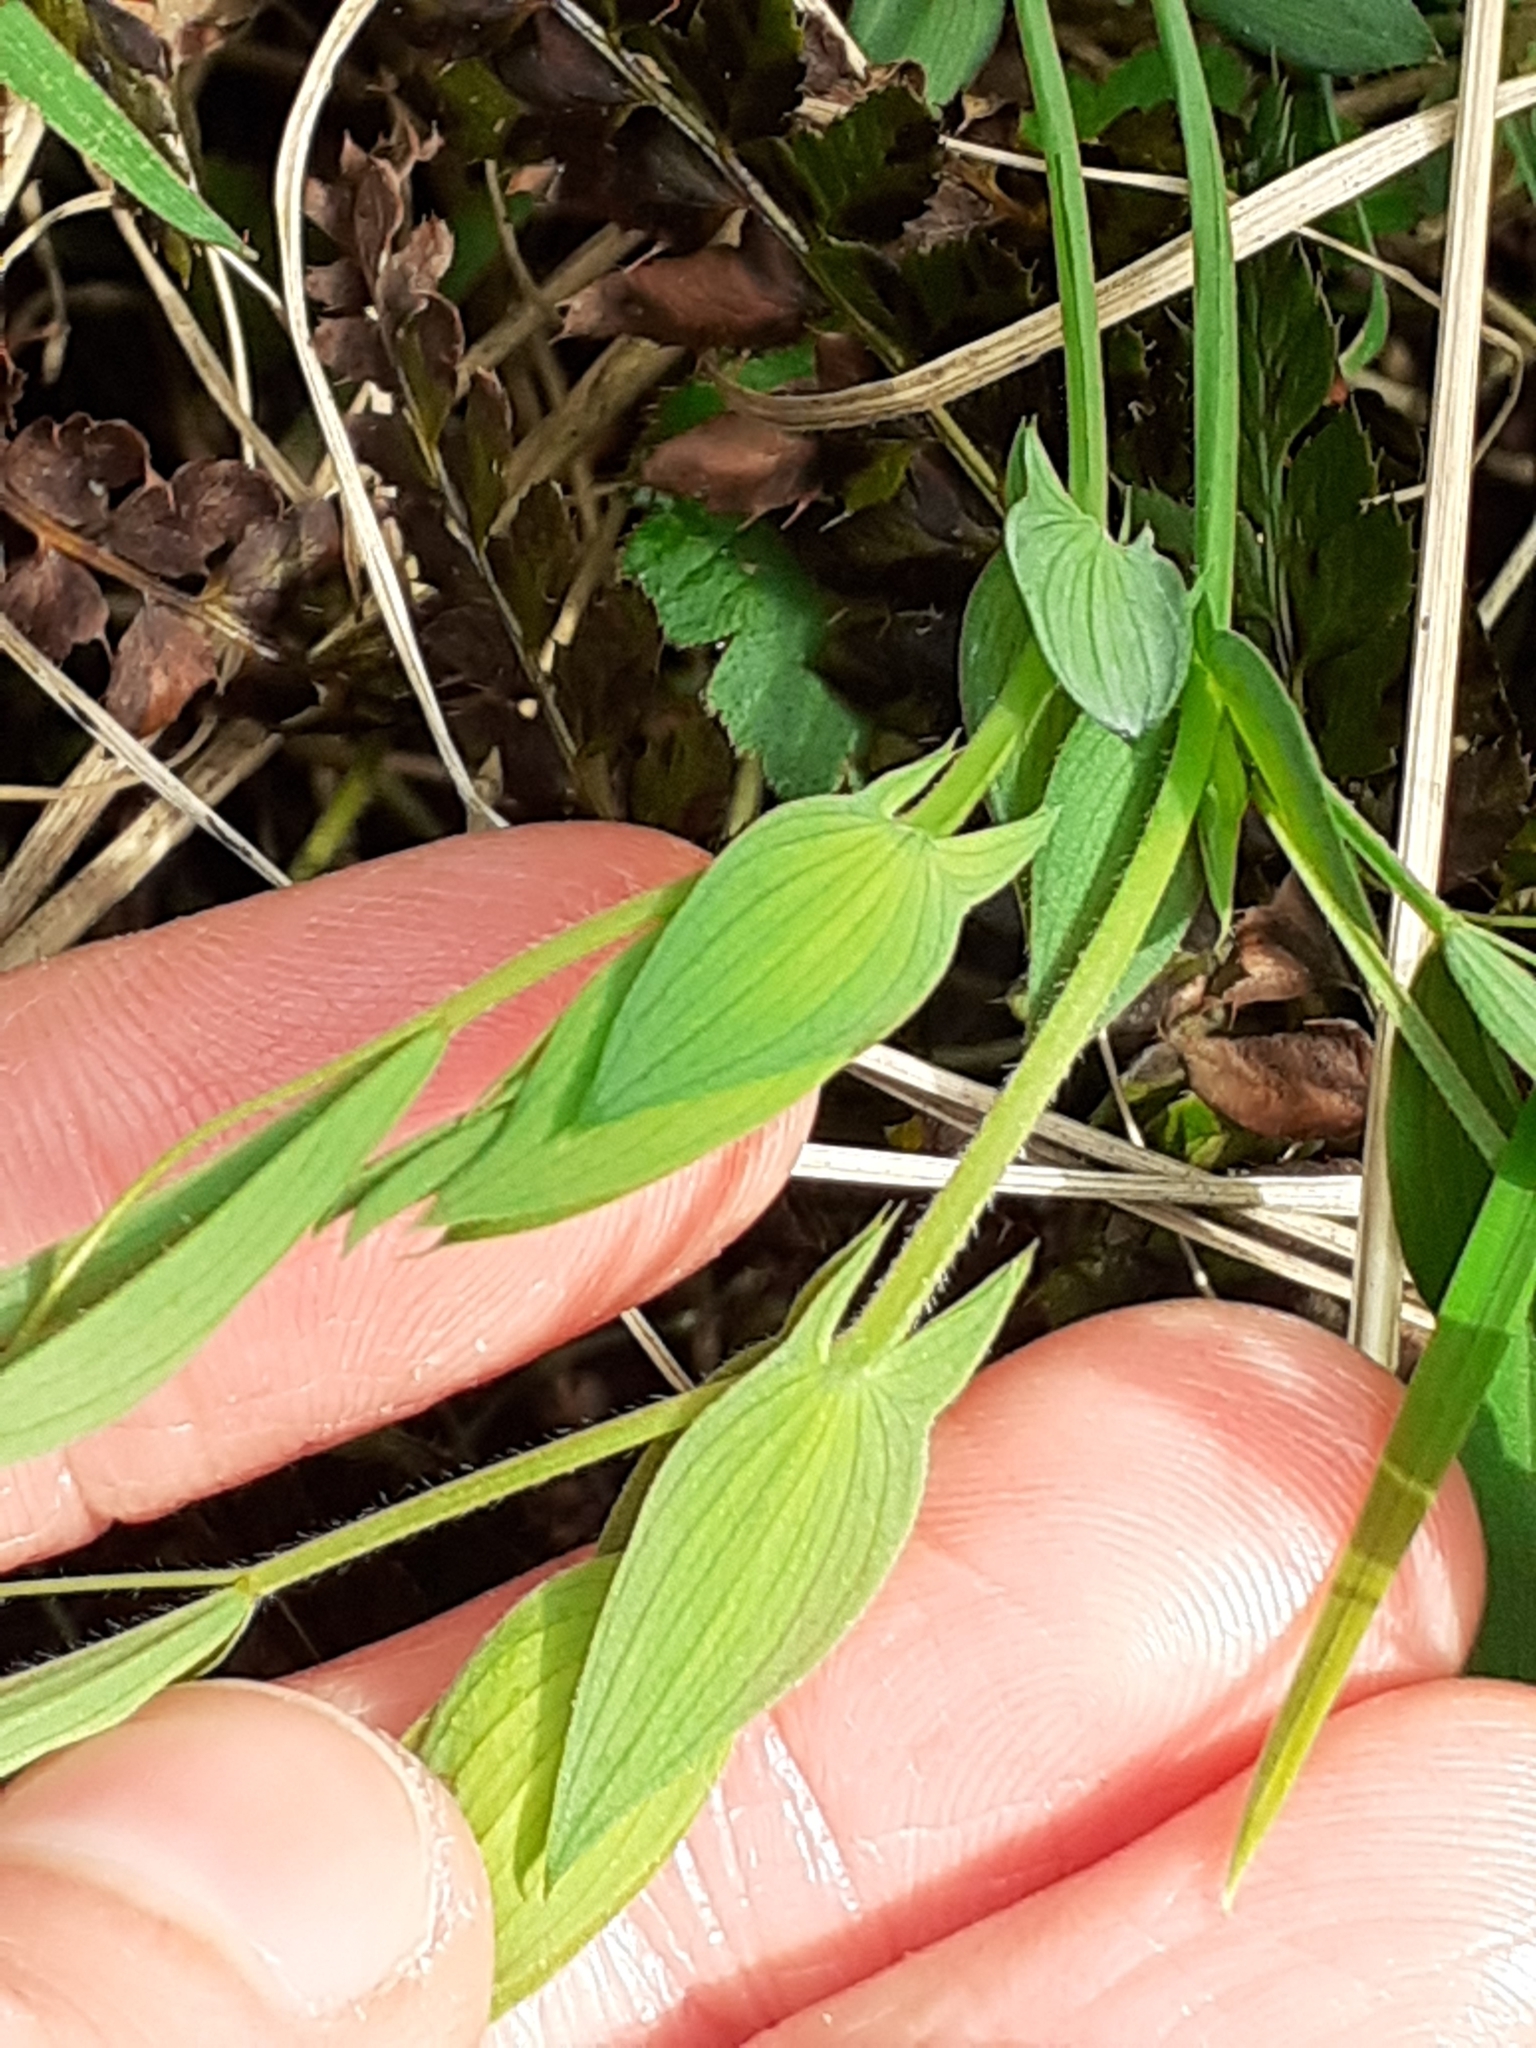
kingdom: Plantae
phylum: Tracheophyta
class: Magnoliopsida
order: Fabales
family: Fabaceae
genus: Lathyrus
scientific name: Lathyrus pratensis
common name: Meadow vetchling
